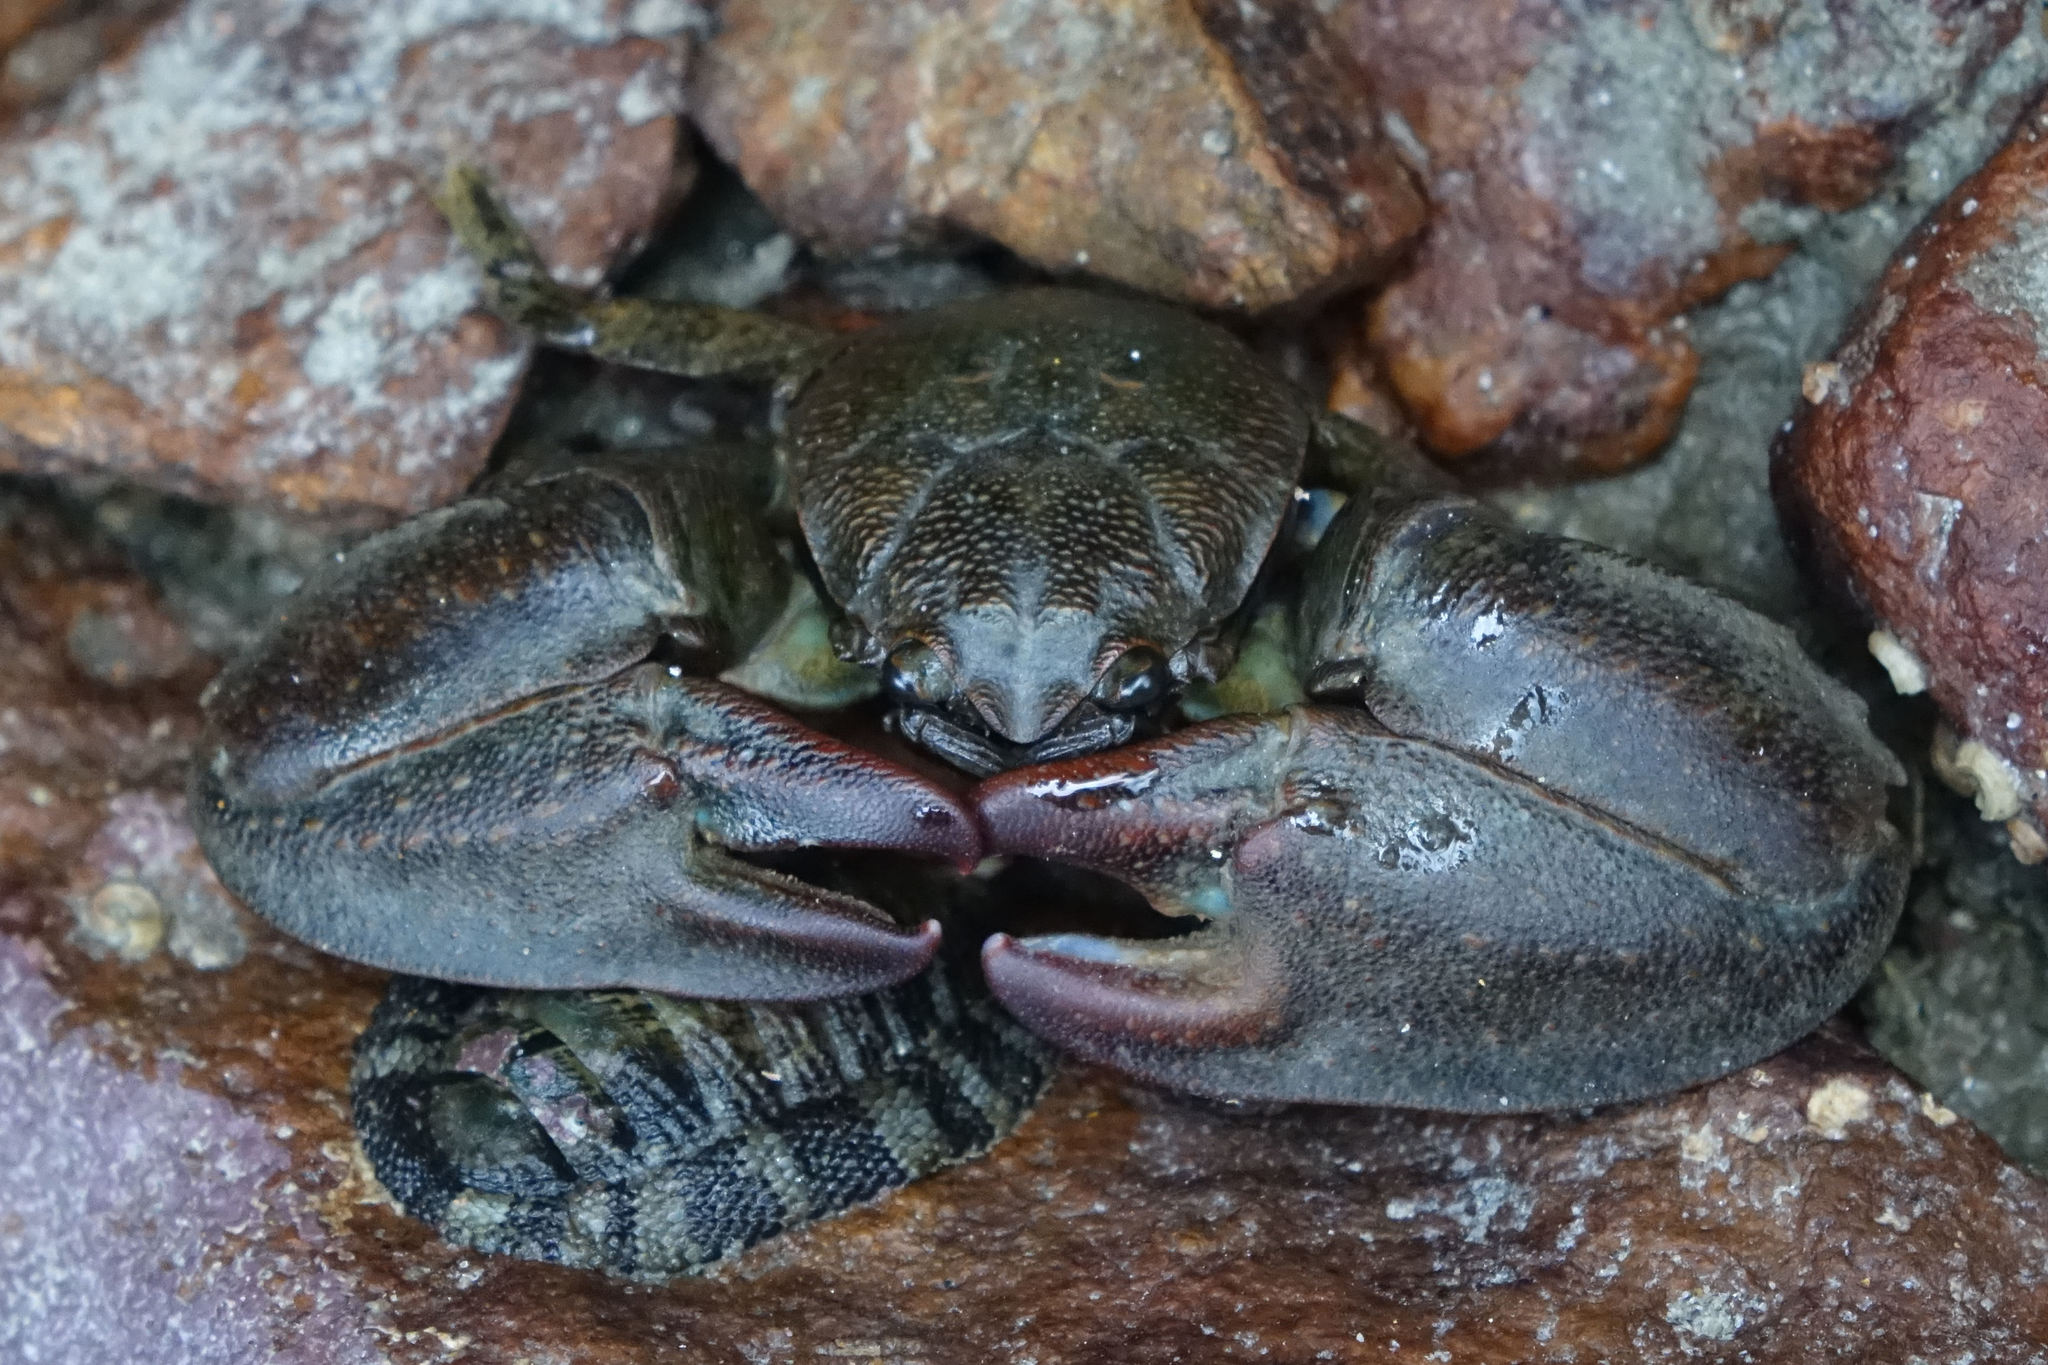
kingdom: Animalia
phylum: Arthropoda
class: Malacostraca
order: Decapoda
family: Porcellanidae
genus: Petrolisthes
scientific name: Petrolisthes elongatus
